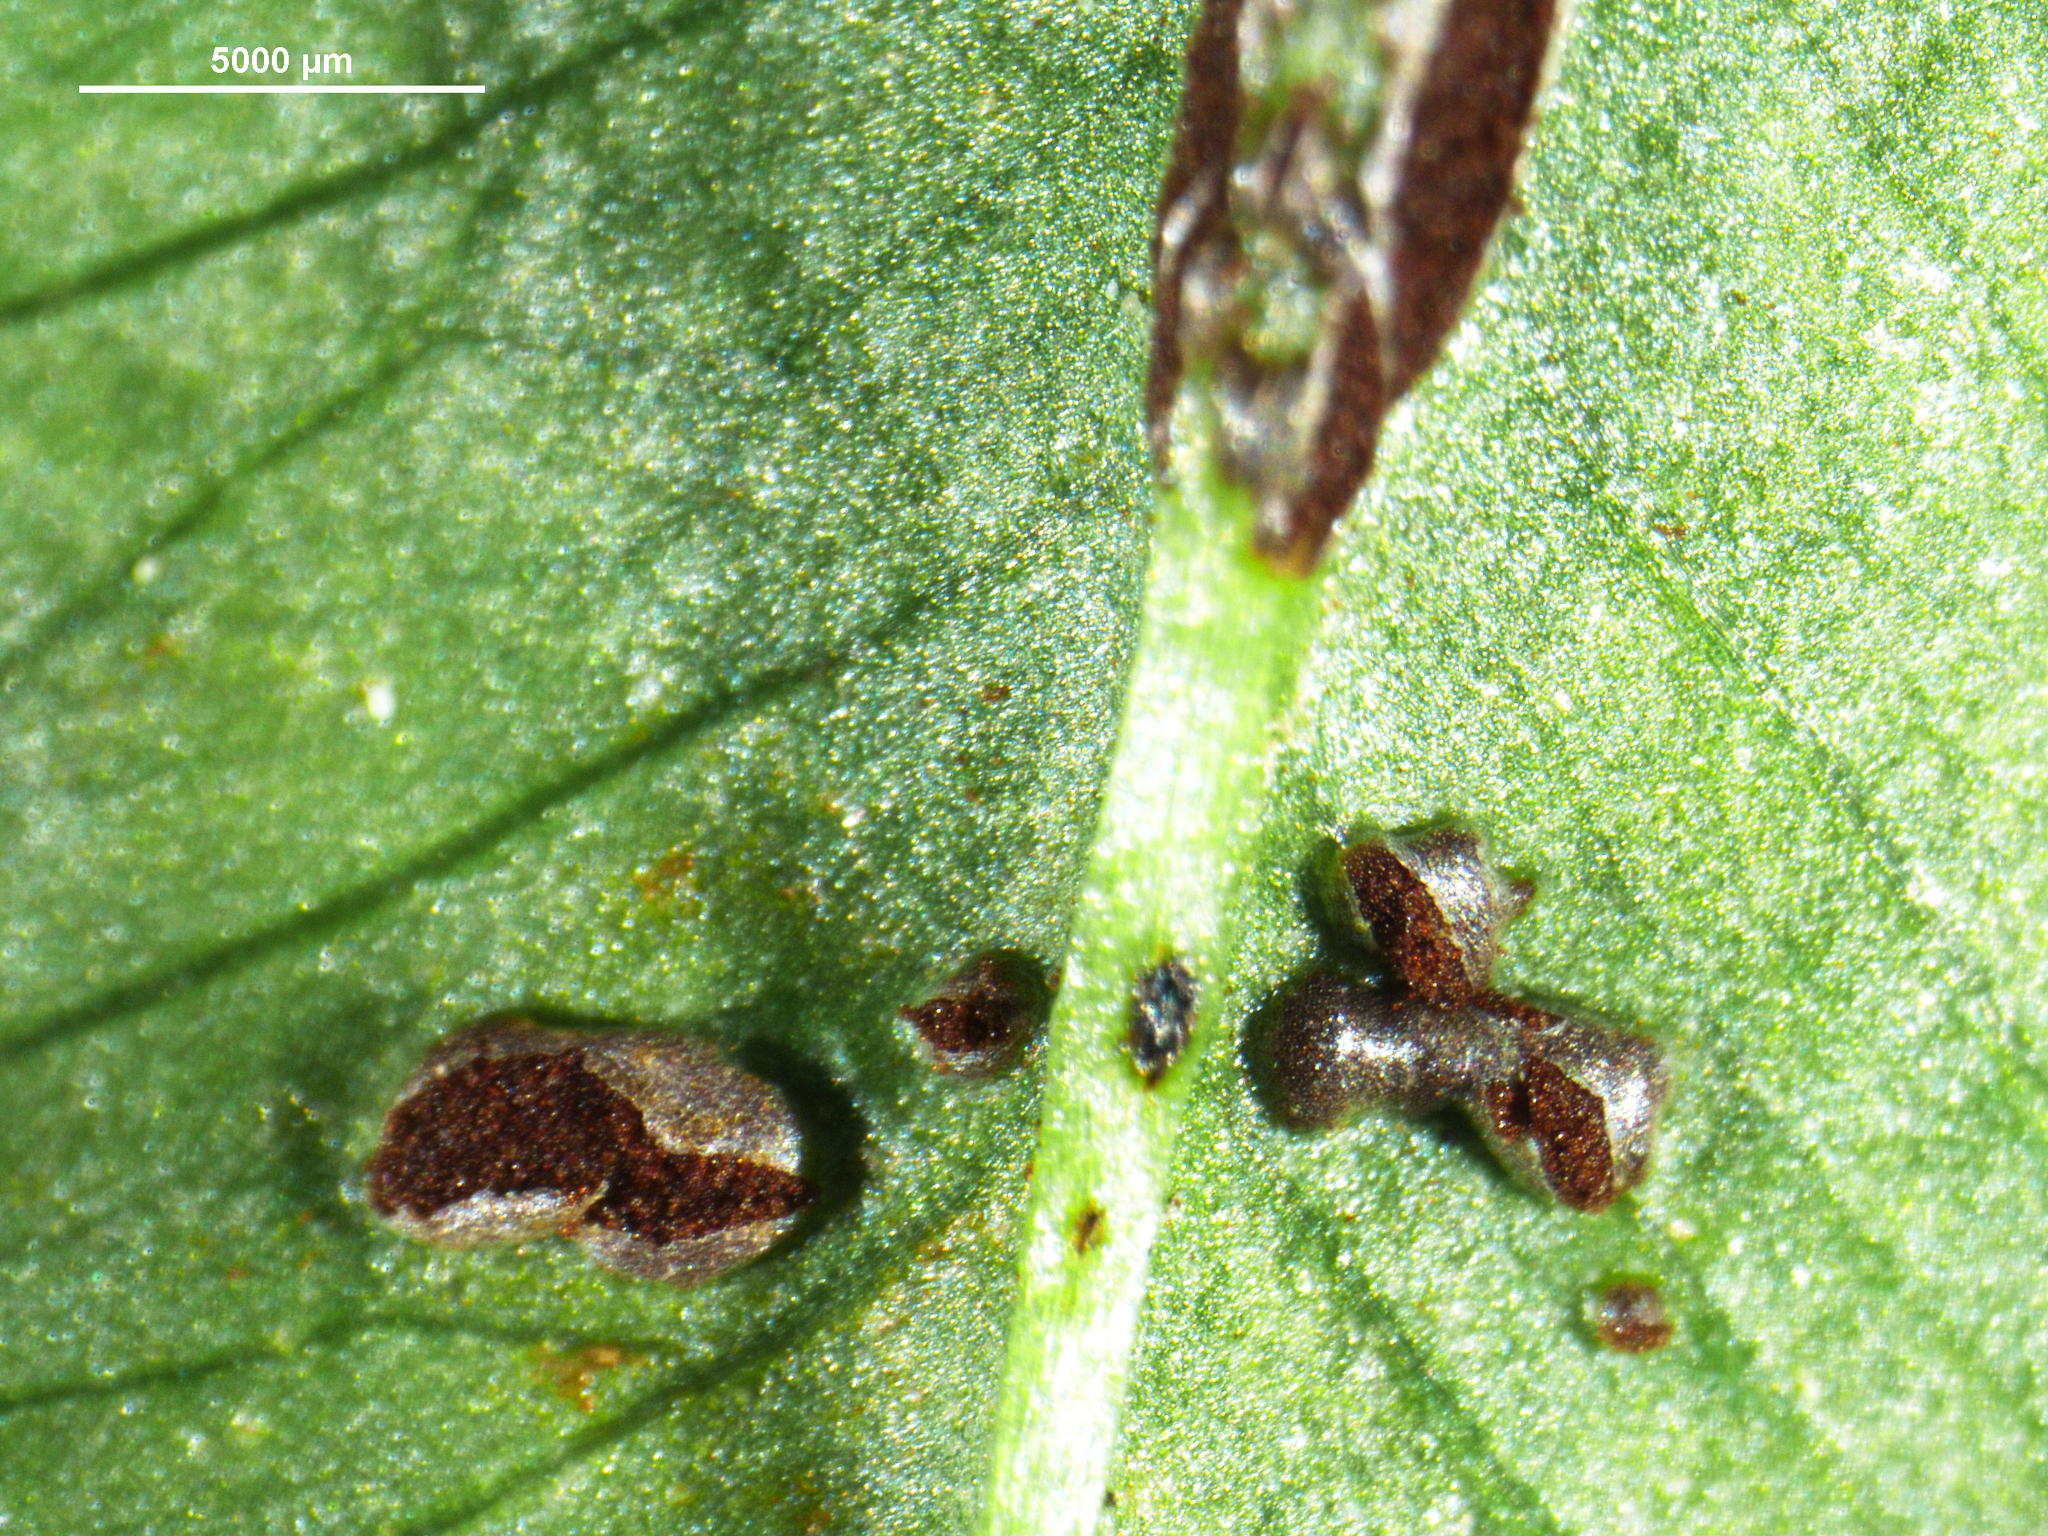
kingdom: Fungi
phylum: Basidiomycota
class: Pucciniomycetes
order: Pucciniales
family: Pucciniaceae
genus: Uromyces
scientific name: Uromyces trifolii-repentis
